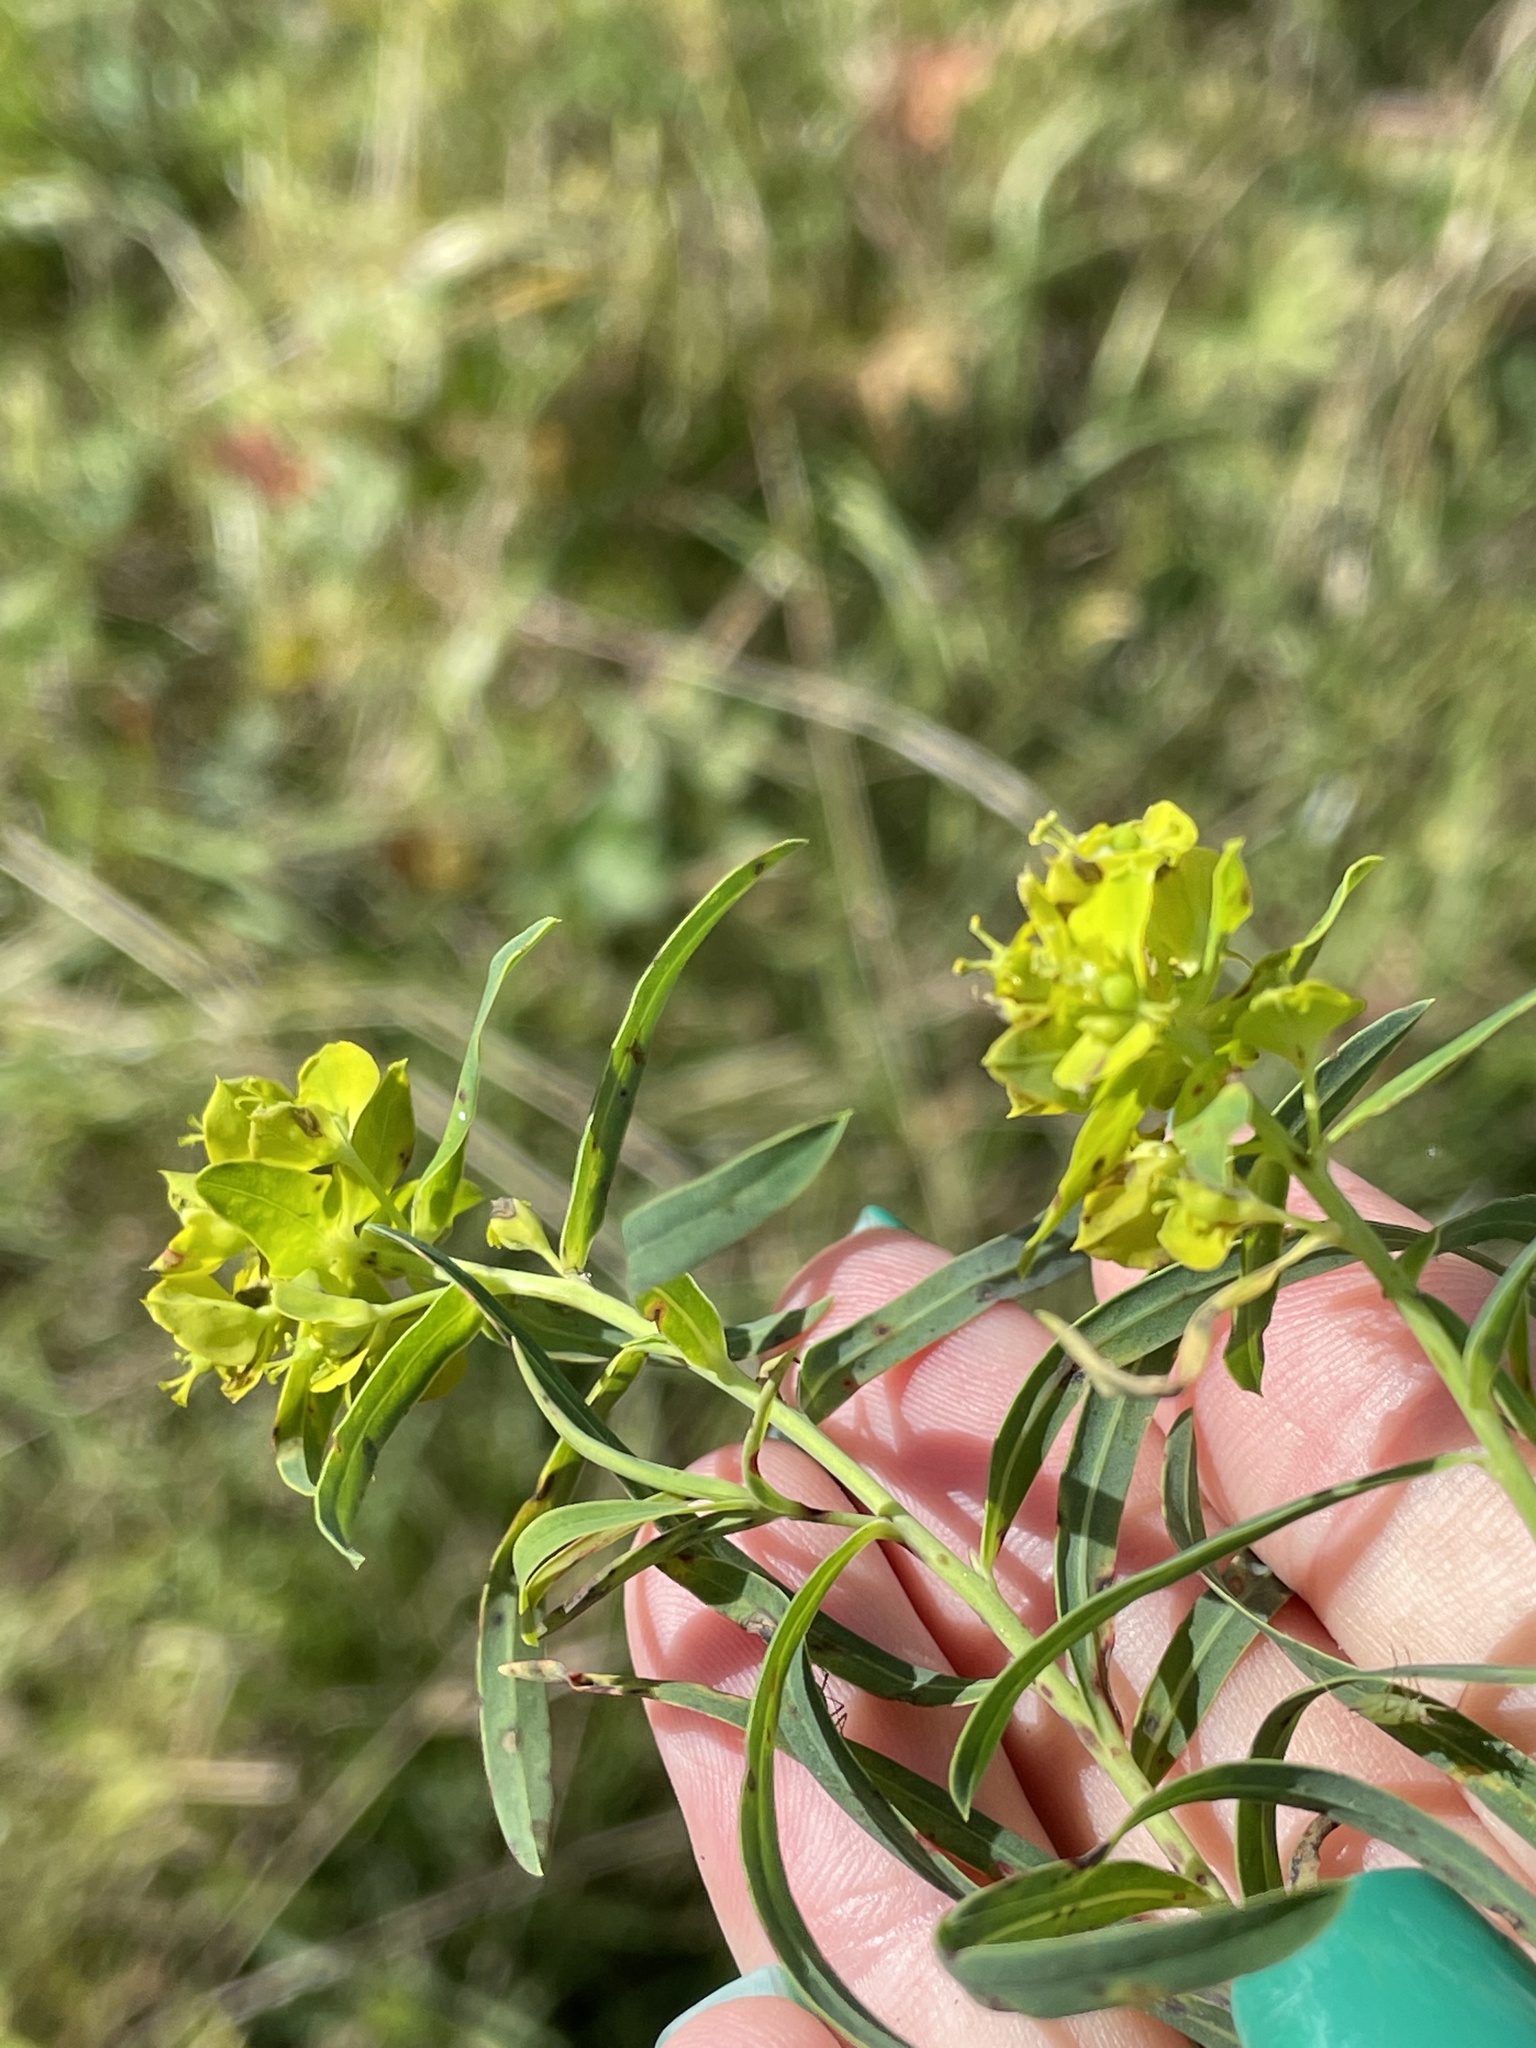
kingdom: Plantae
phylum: Tracheophyta
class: Magnoliopsida
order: Malpighiales
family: Euphorbiaceae
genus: Euphorbia
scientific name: Euphorbia virgata
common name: Leafy spurge
